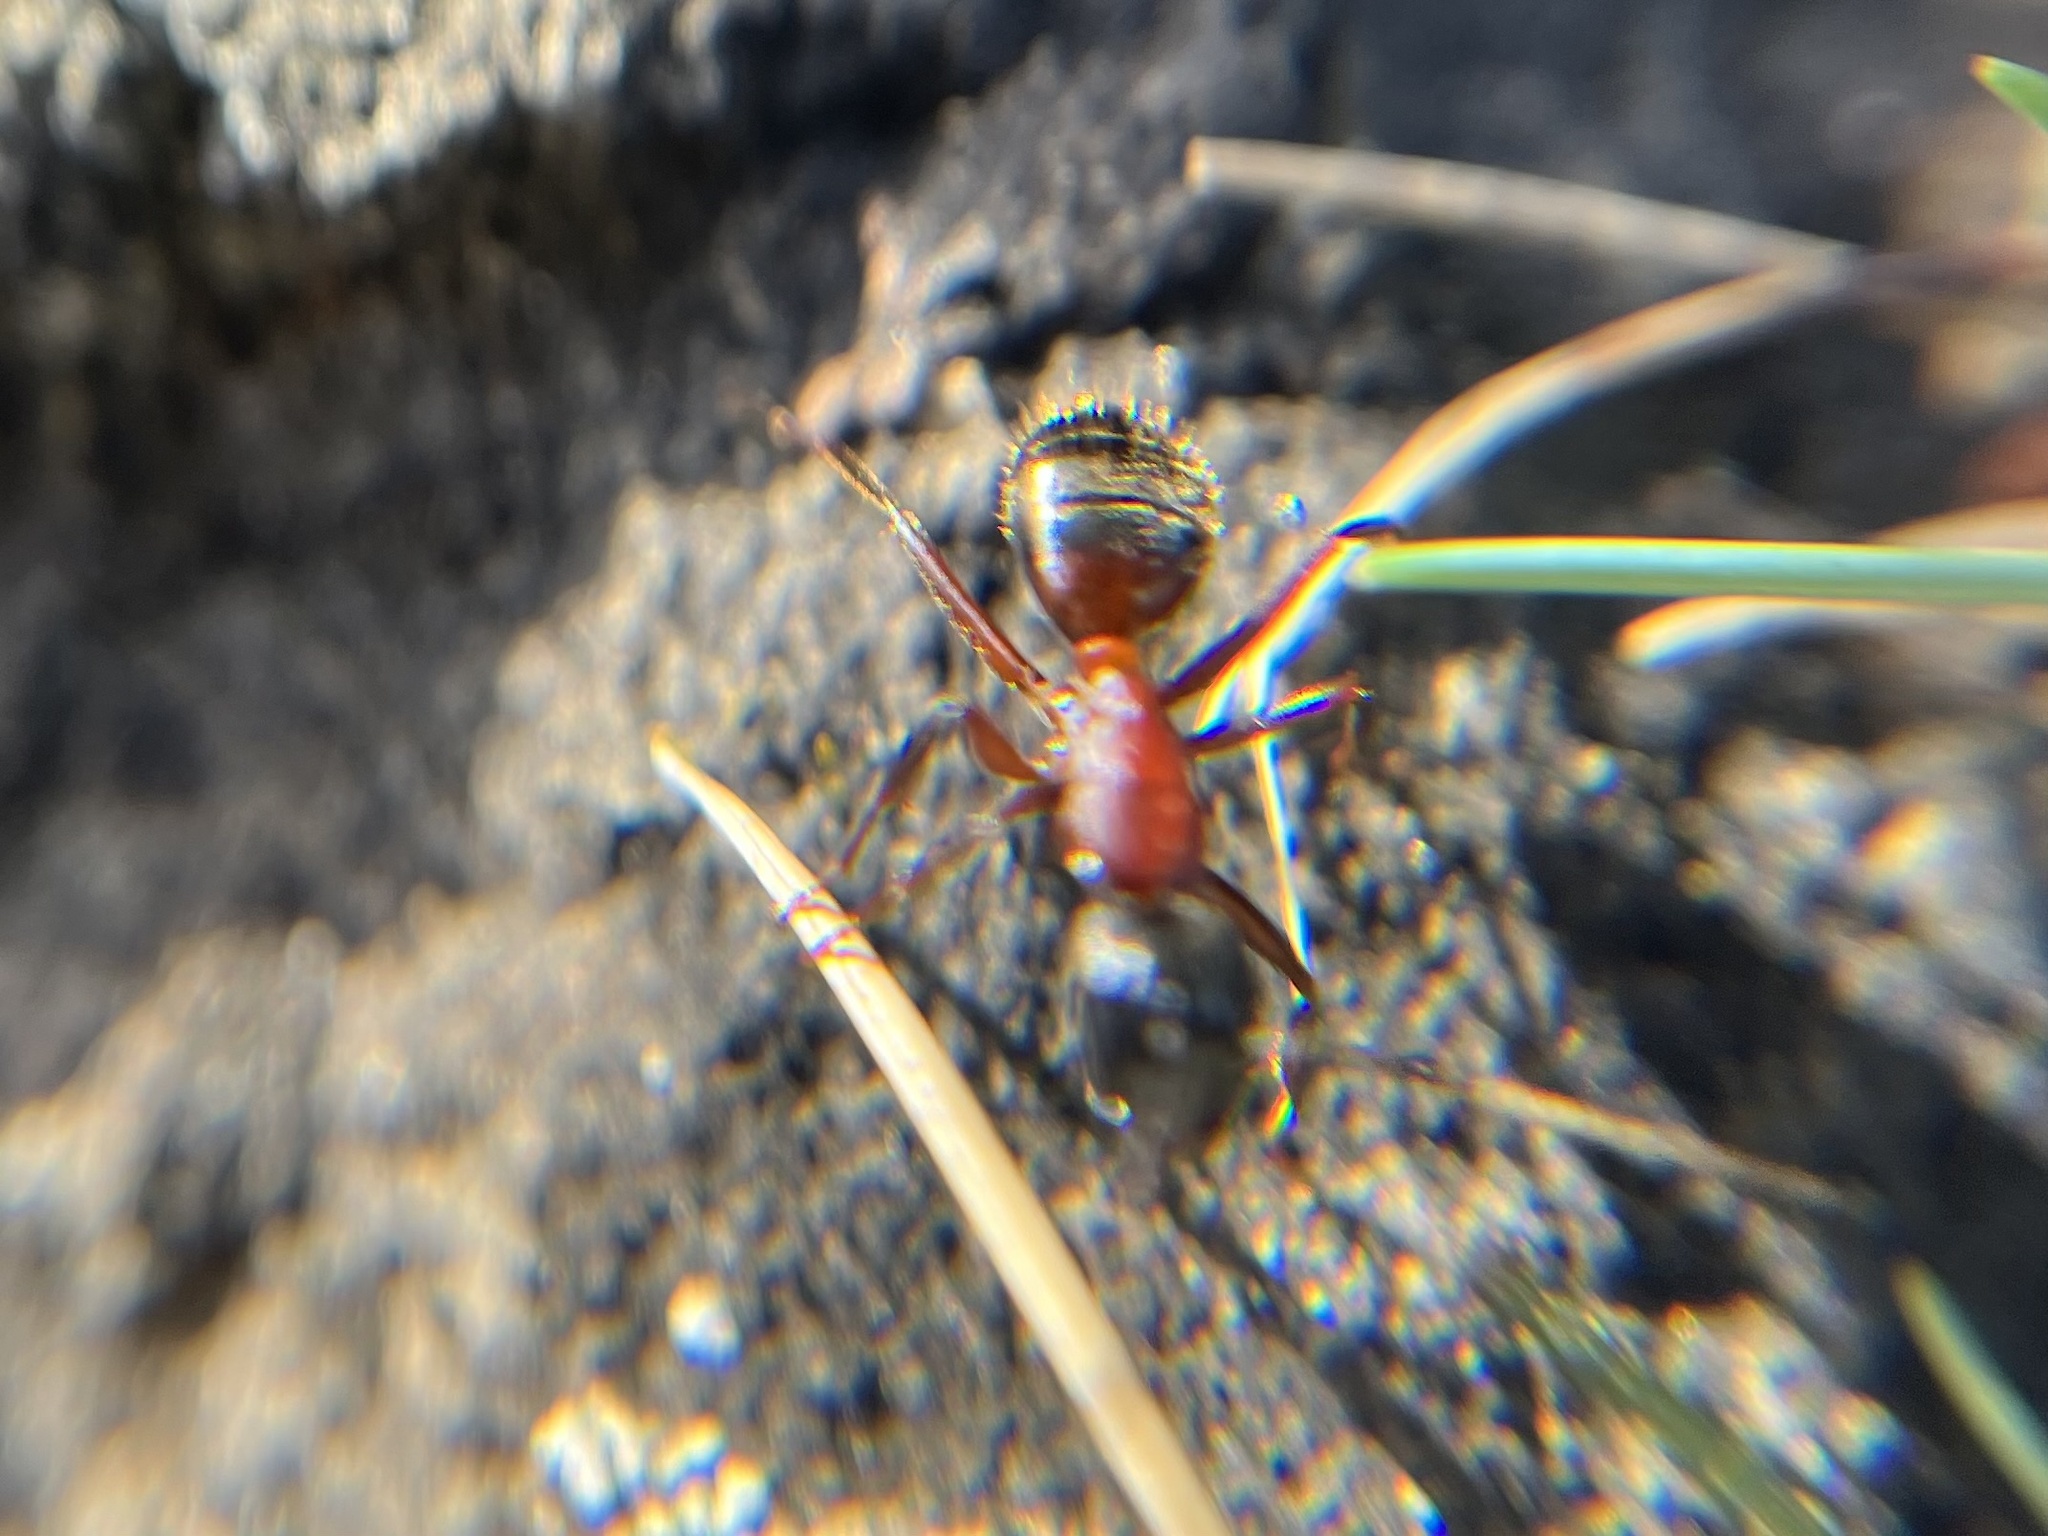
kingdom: Animalia
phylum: Arthropoda
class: Insecta
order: Hymenoptera
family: Formicidae
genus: Camponotus
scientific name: Camponotus ligniperdus
